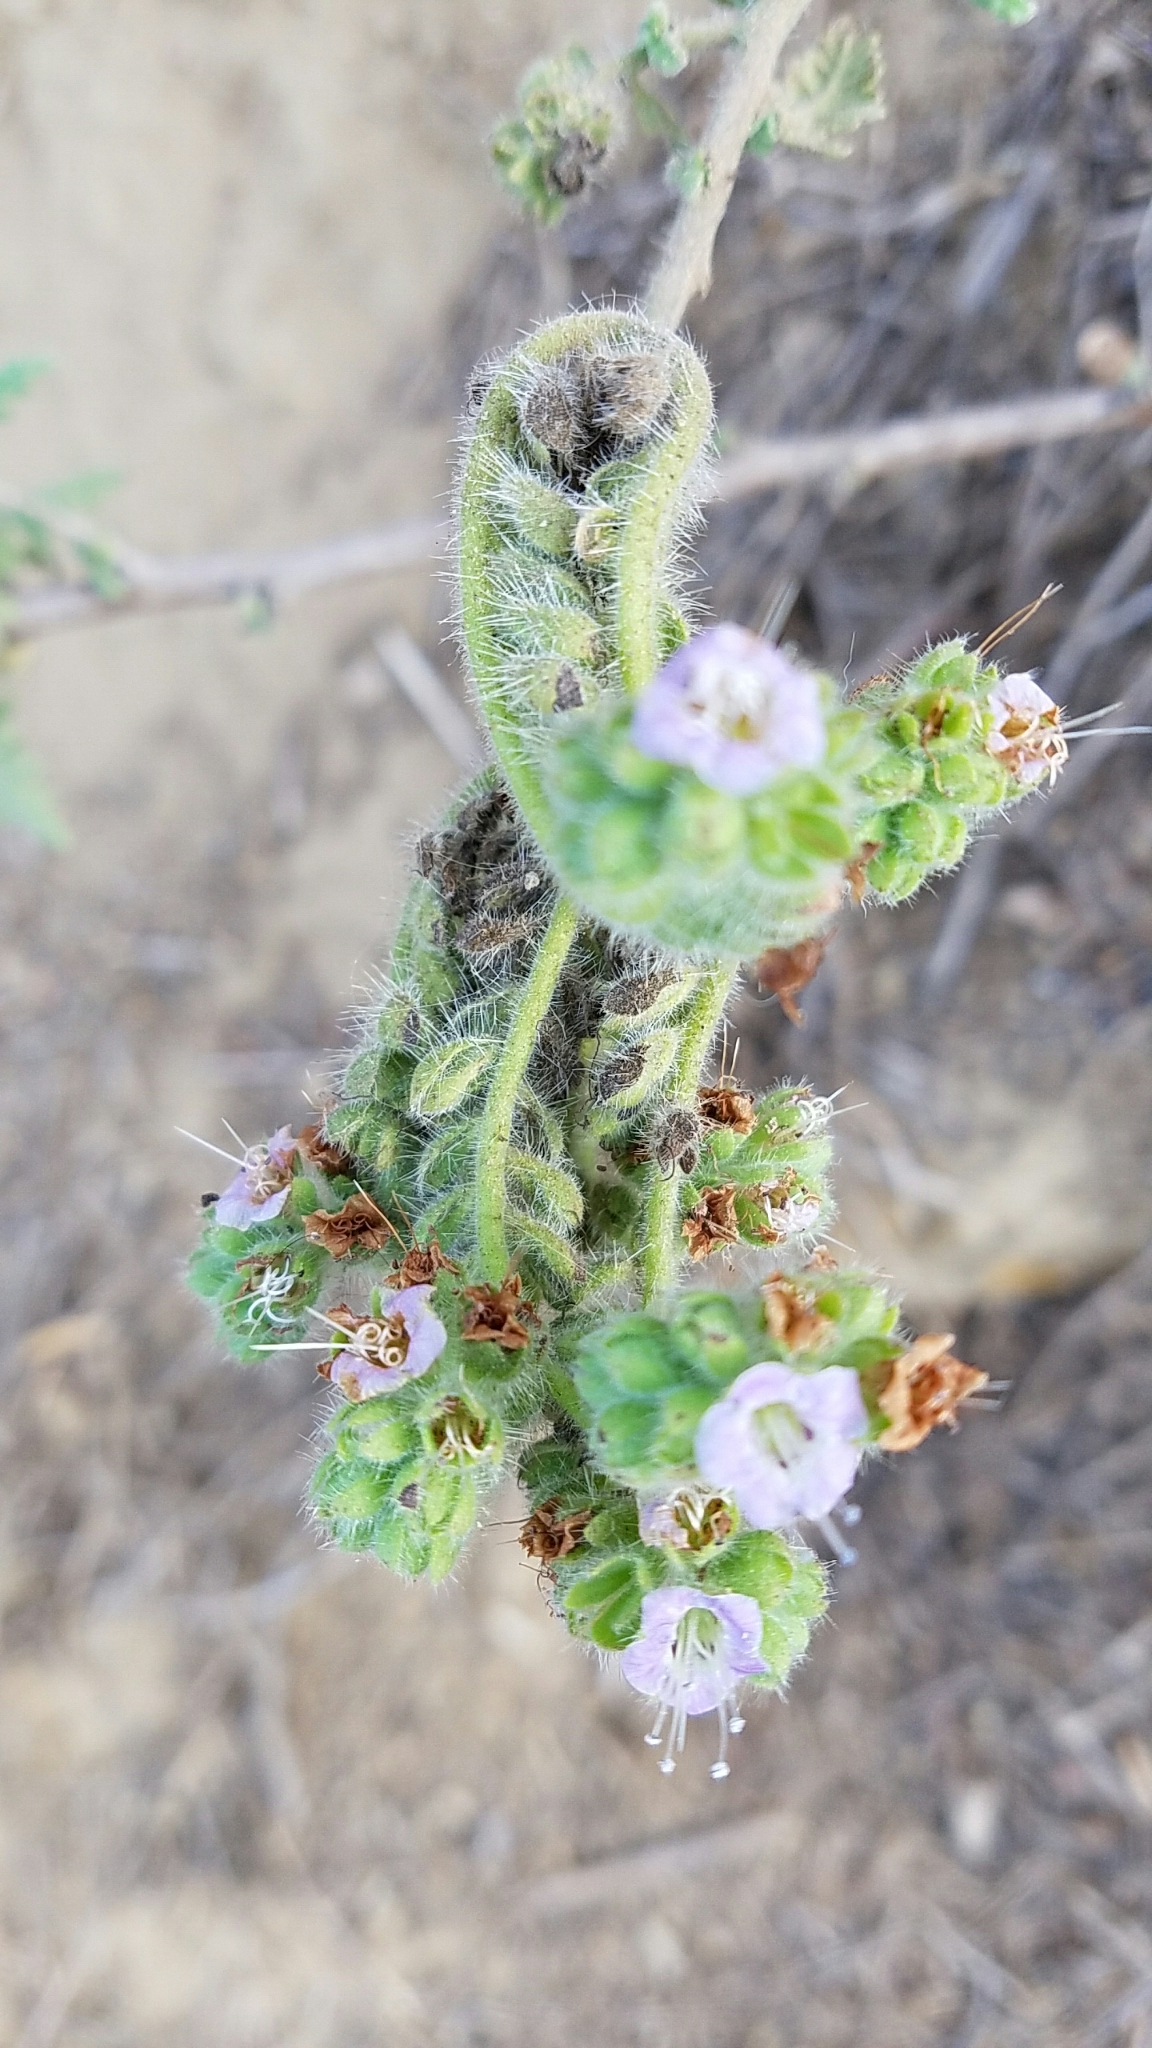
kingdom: Plantae
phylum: Tracheophyta
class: Magnoliopsida
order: Boraginales
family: Hydrophyllaceae
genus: Phacelia
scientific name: Phacelia ramosissima
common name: Branching phacelia
